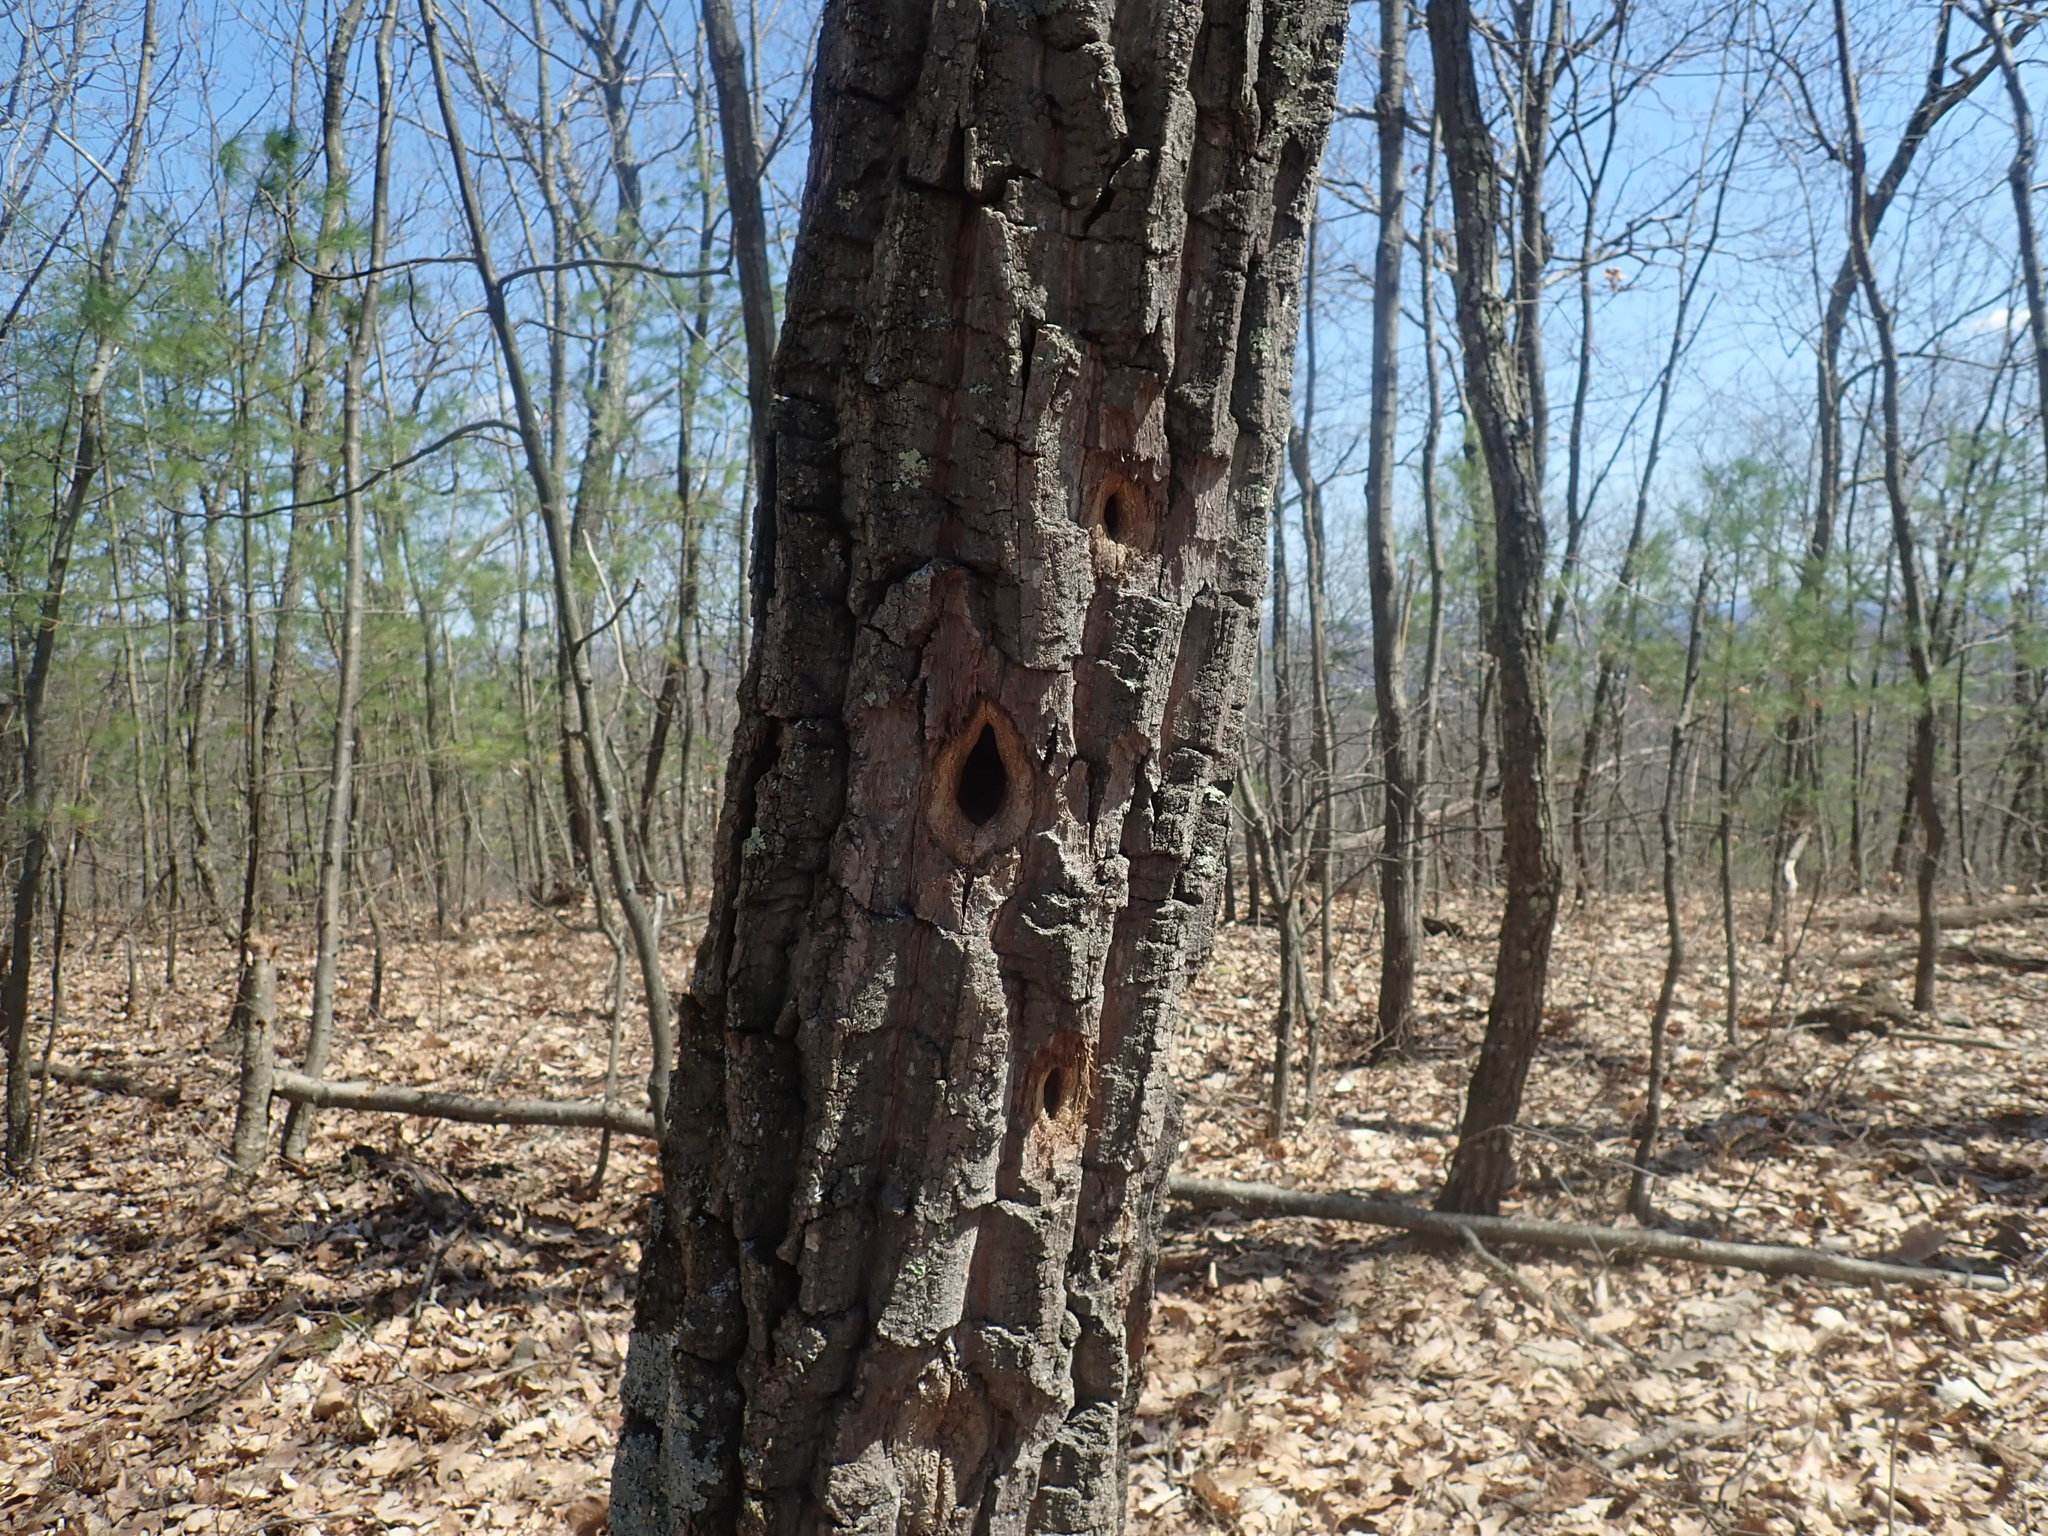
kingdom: Animalia
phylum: Chordata
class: Aves
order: Piciformes
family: Picidae
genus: Dryocopus
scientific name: Dryocopus pileatus
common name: Pileated woodpecker
